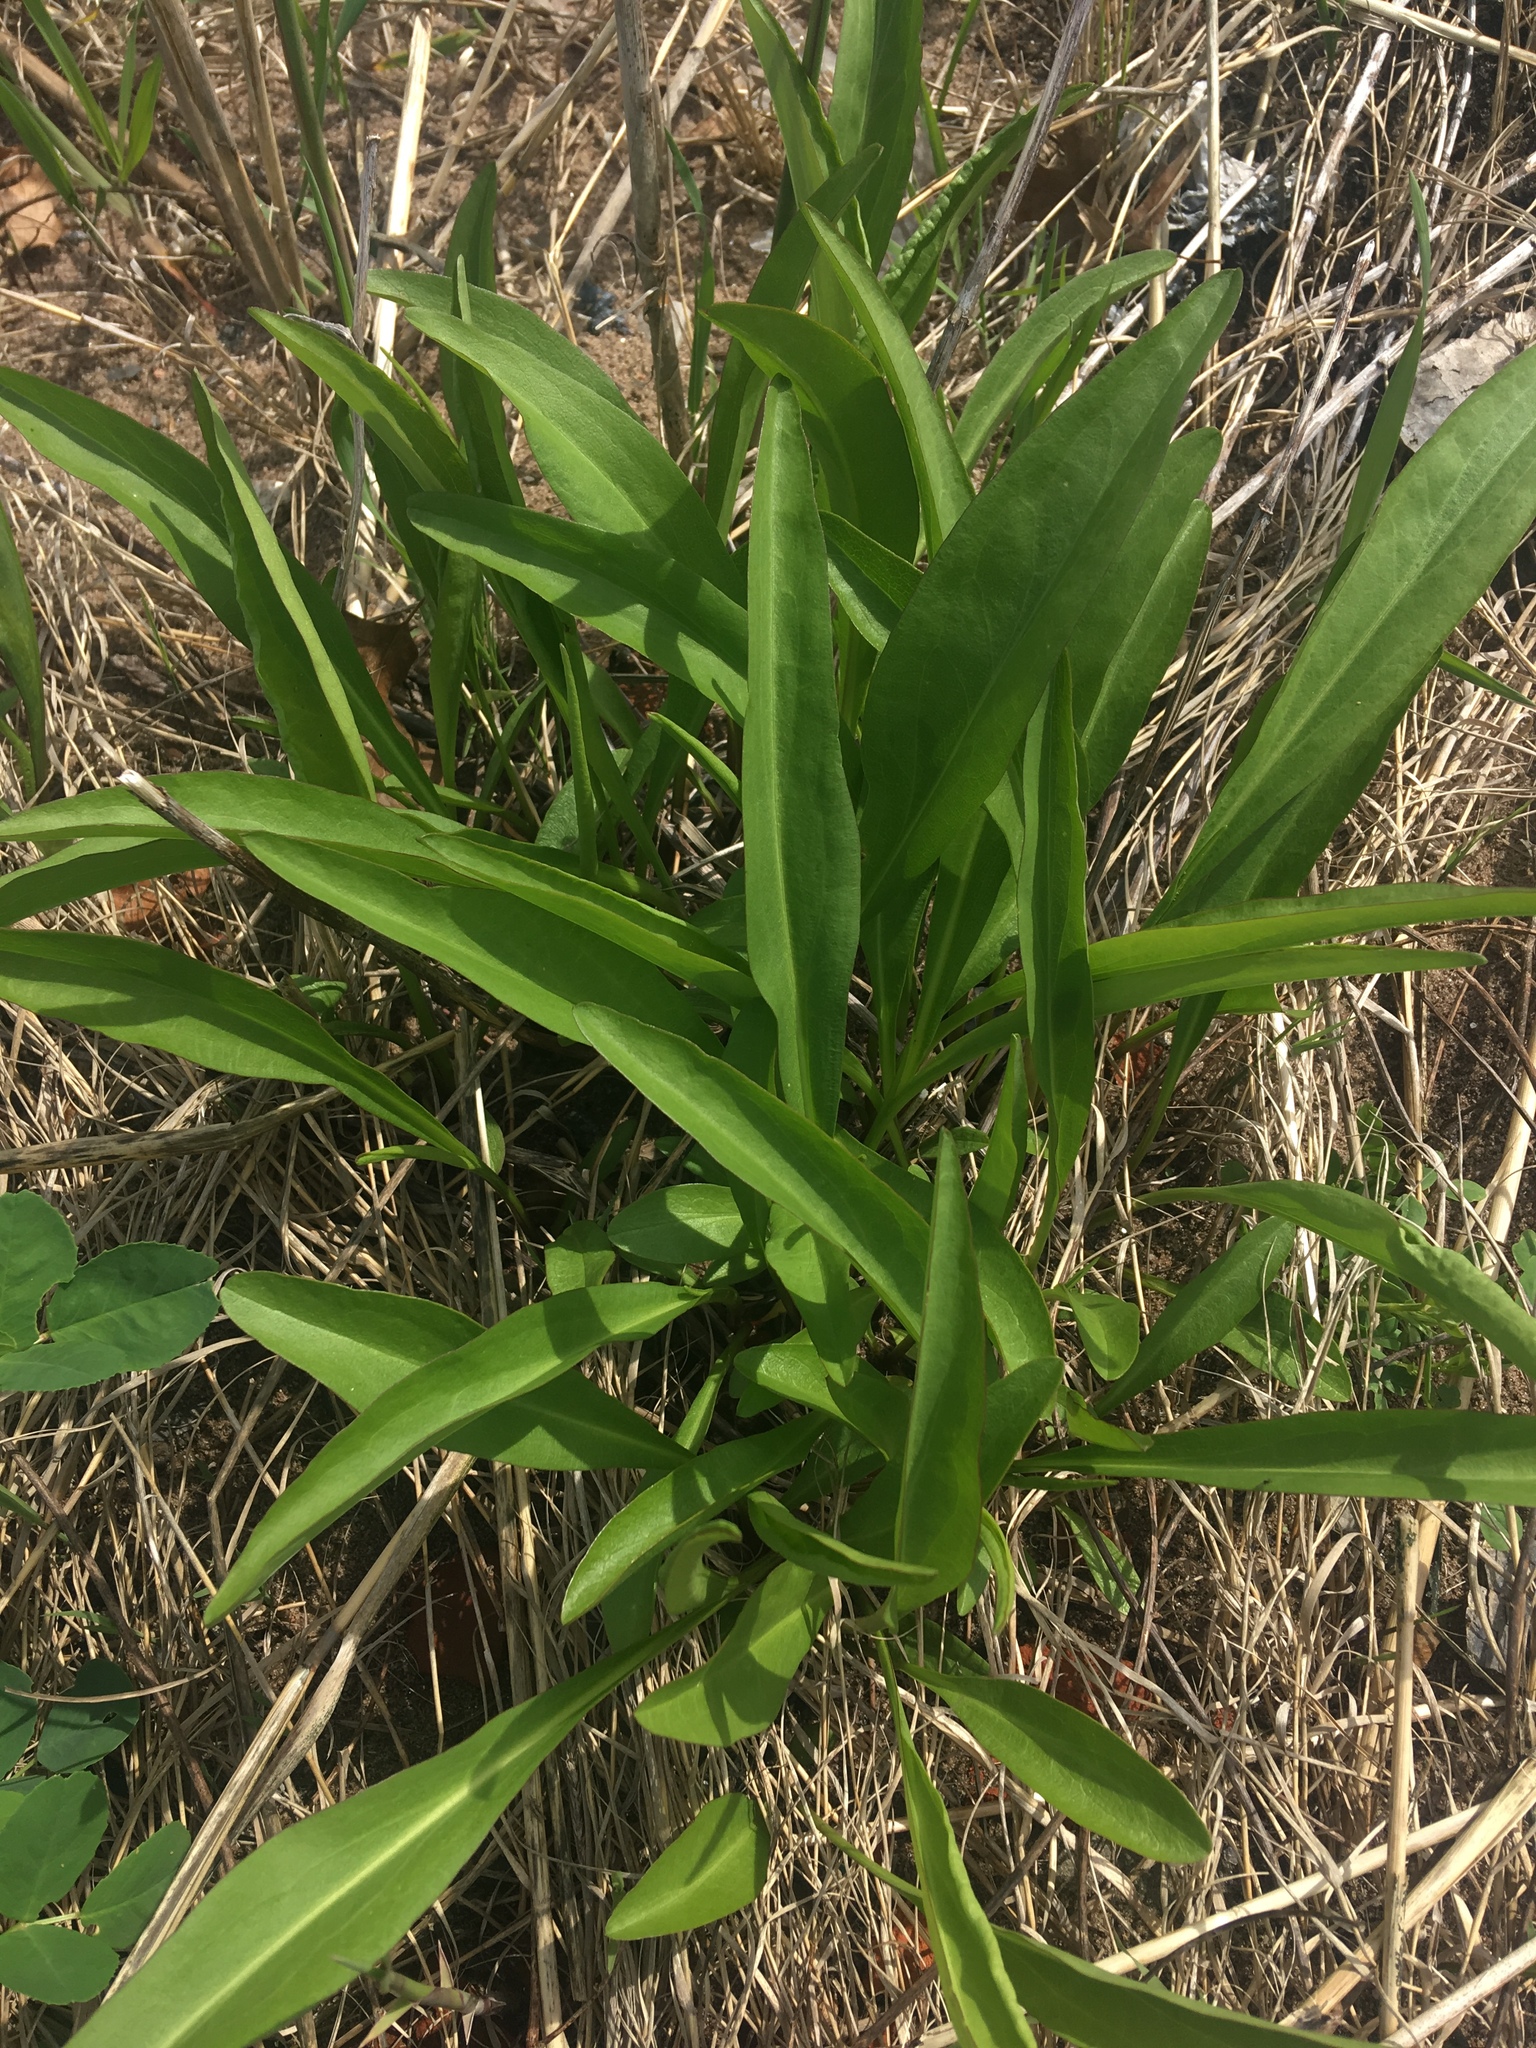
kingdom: Plantae
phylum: Tracheophyta
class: Magnoliopsida
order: Asterales
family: Asteraceae
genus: Solidago
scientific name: Solidago sempervirens
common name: Salt-marsh goldenrod
